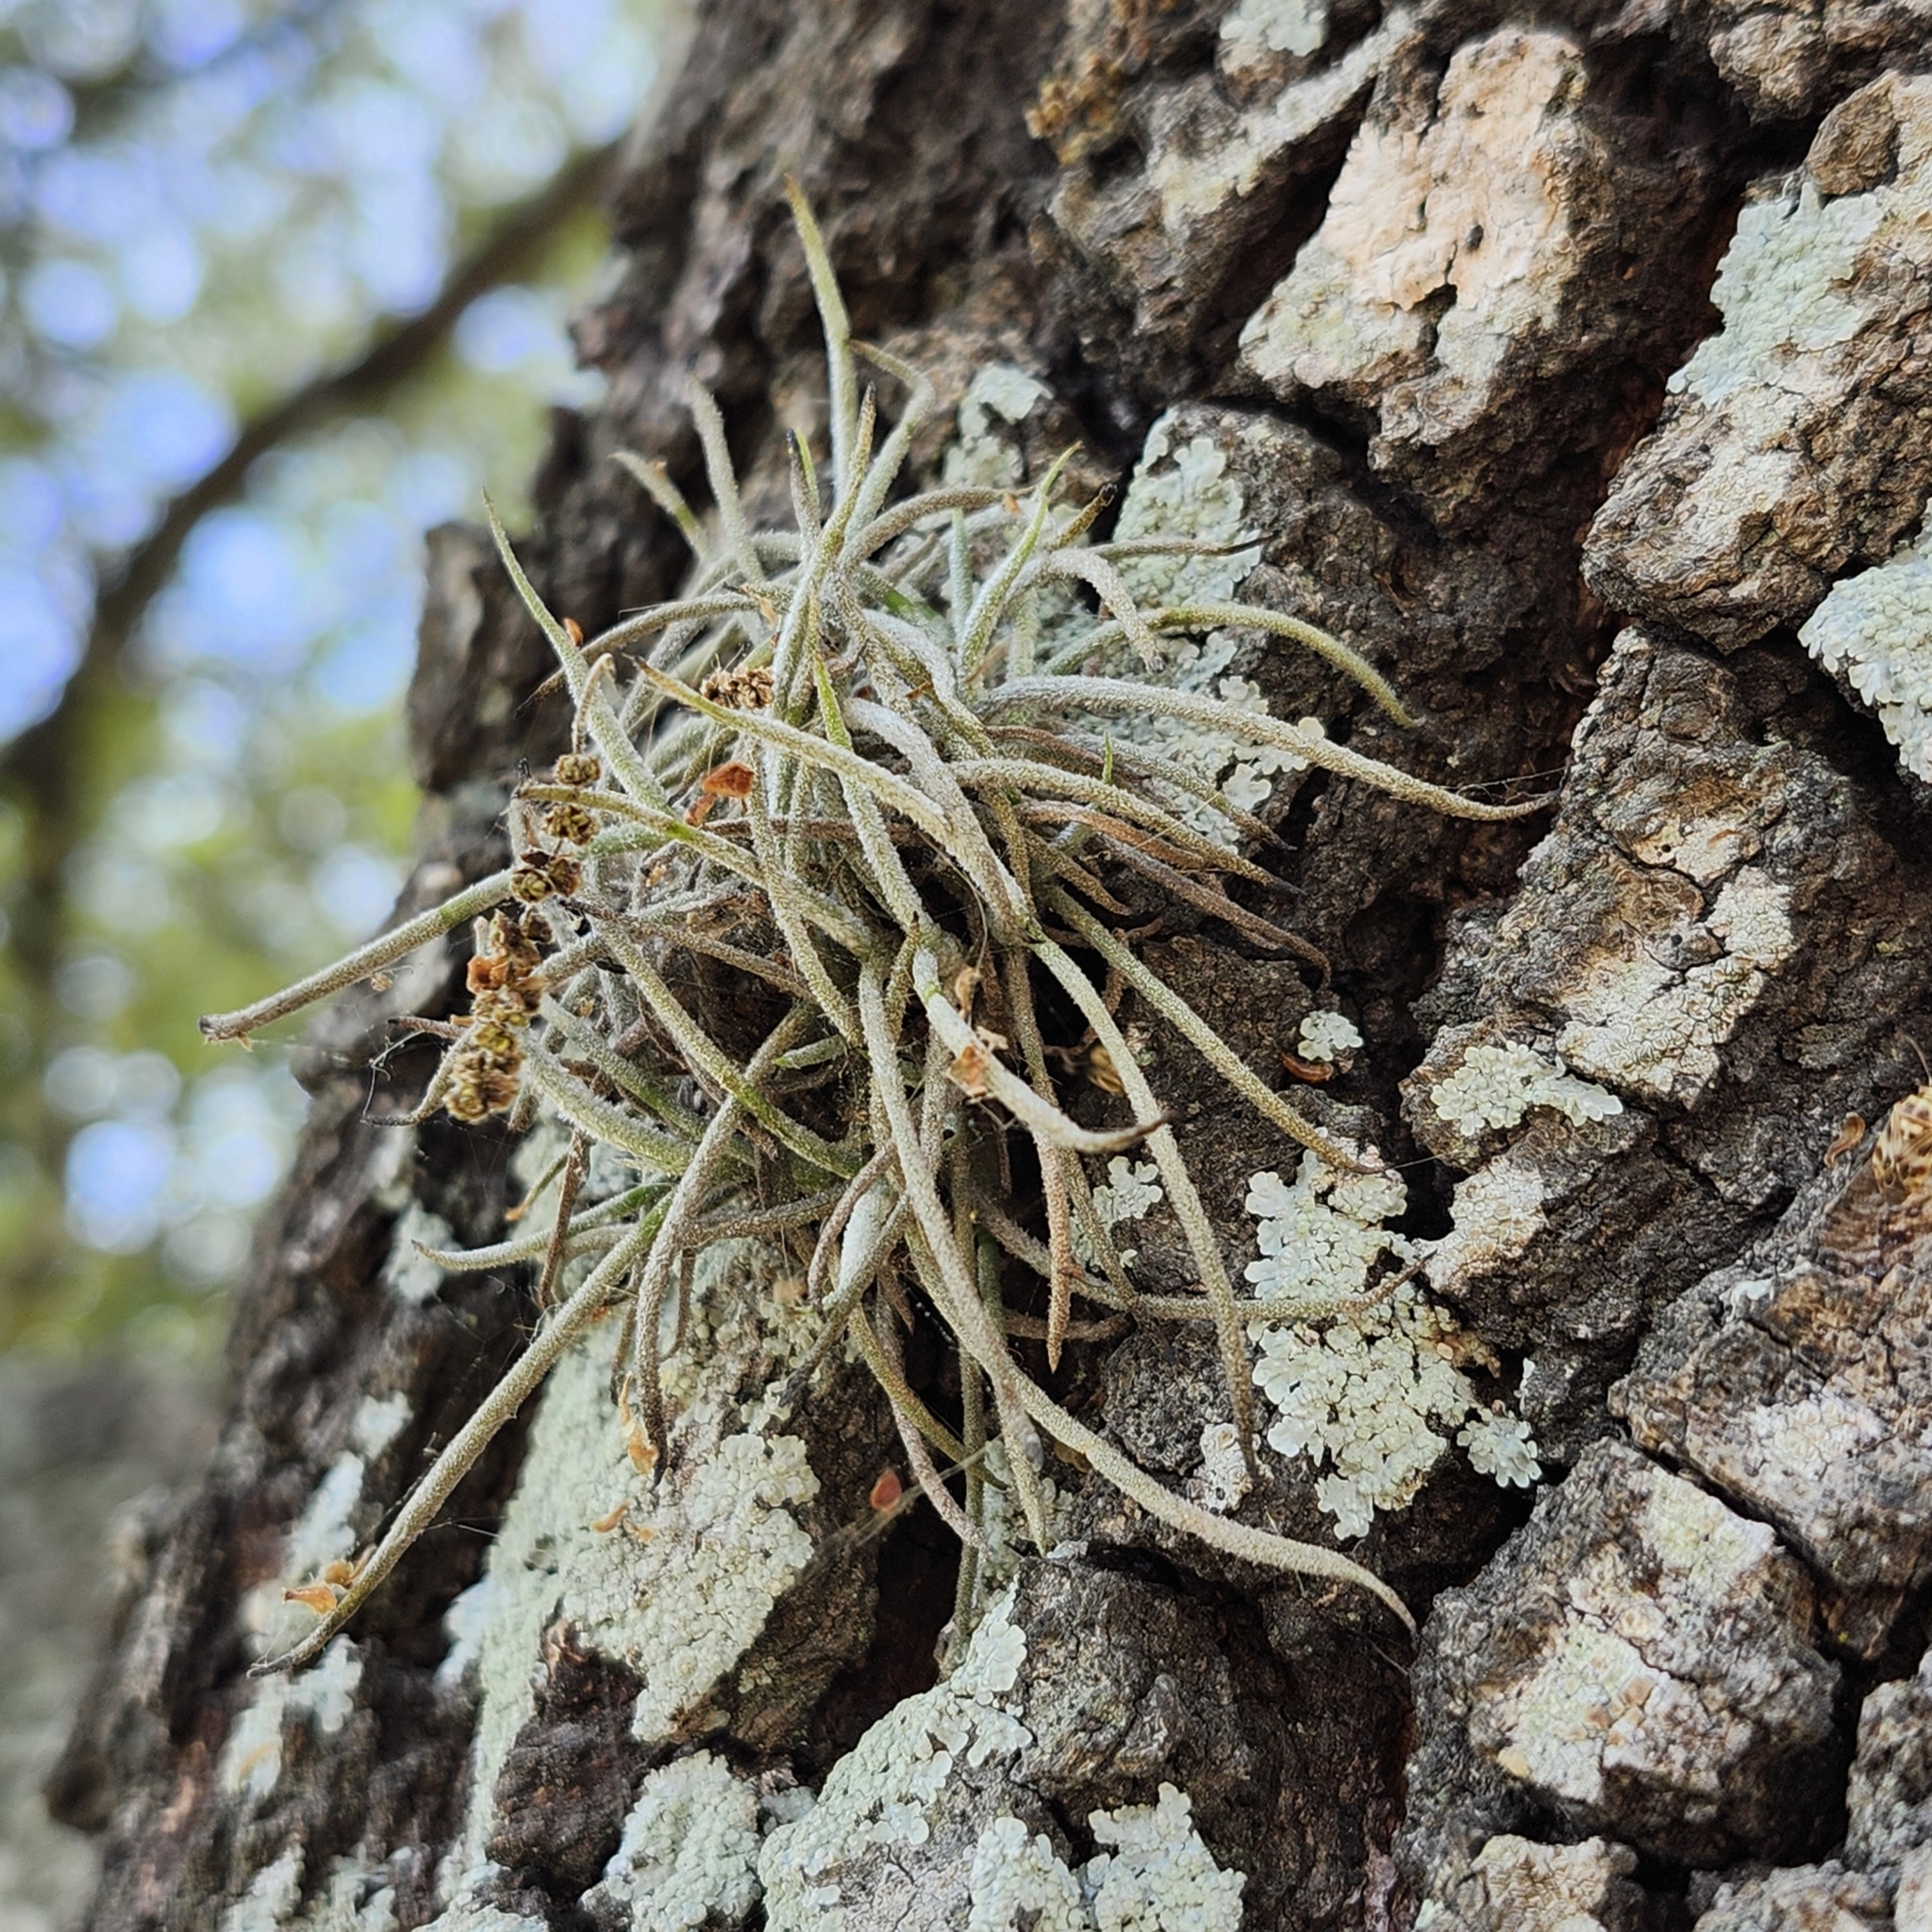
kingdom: Plantae
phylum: Tracheophyta
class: Liliopsida
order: Poales
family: Bromeliaceae
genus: Tillandsia
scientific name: Tillandsia recurvata
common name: Small ballmoss
